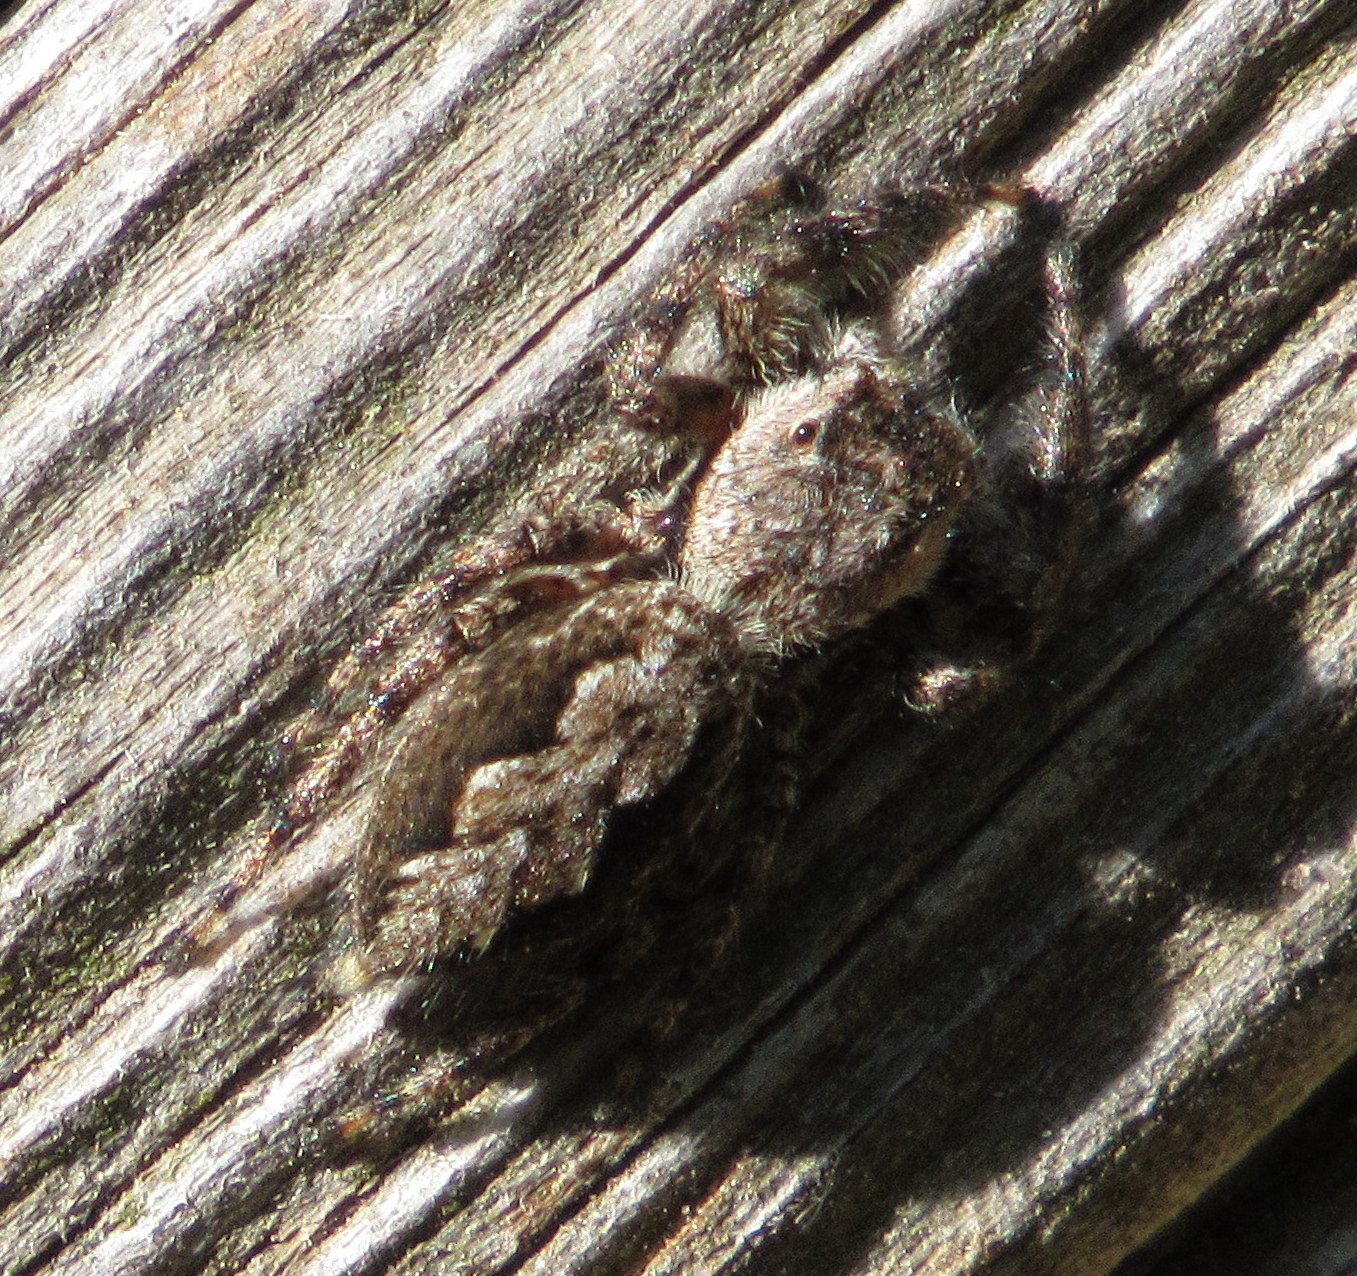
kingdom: Animalia
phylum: Arthropoda
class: Arachnida
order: Araneae
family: Salticidae
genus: Platycryptus
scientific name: Platycryptus undatus
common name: Tan jumping spider
